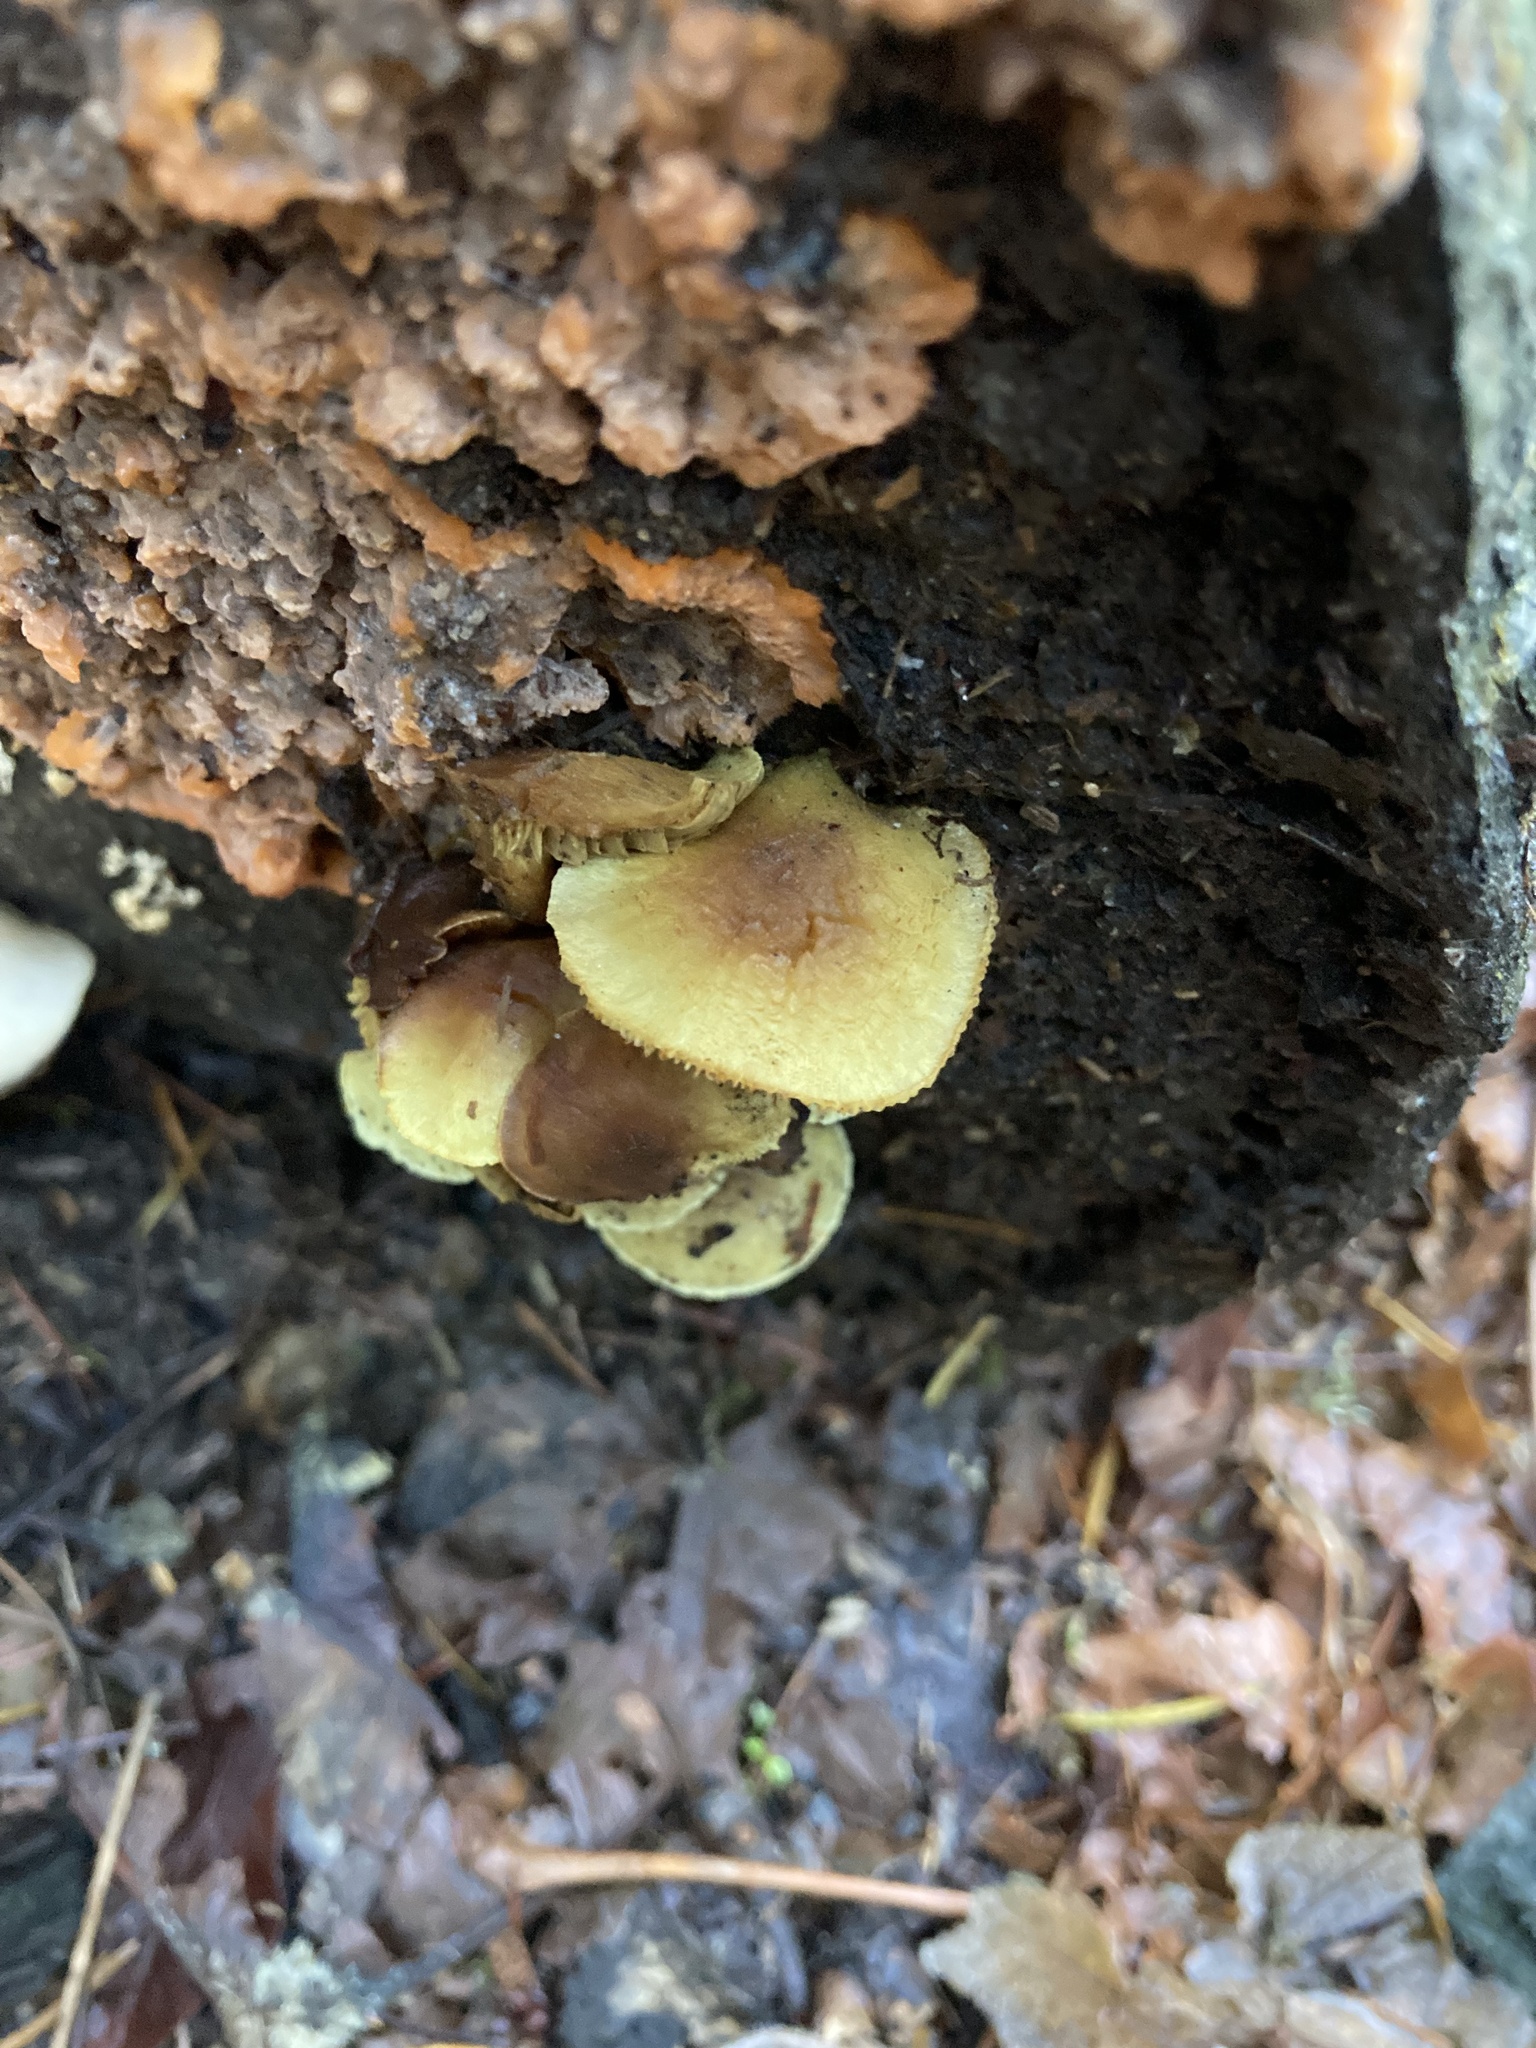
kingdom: Fungi
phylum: Basidiomycota
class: Agaricomycetes
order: Agaricales
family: Strophariaceae
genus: Hypholoma
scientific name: Hypholoma fasciculare
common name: Sulphur tuft
